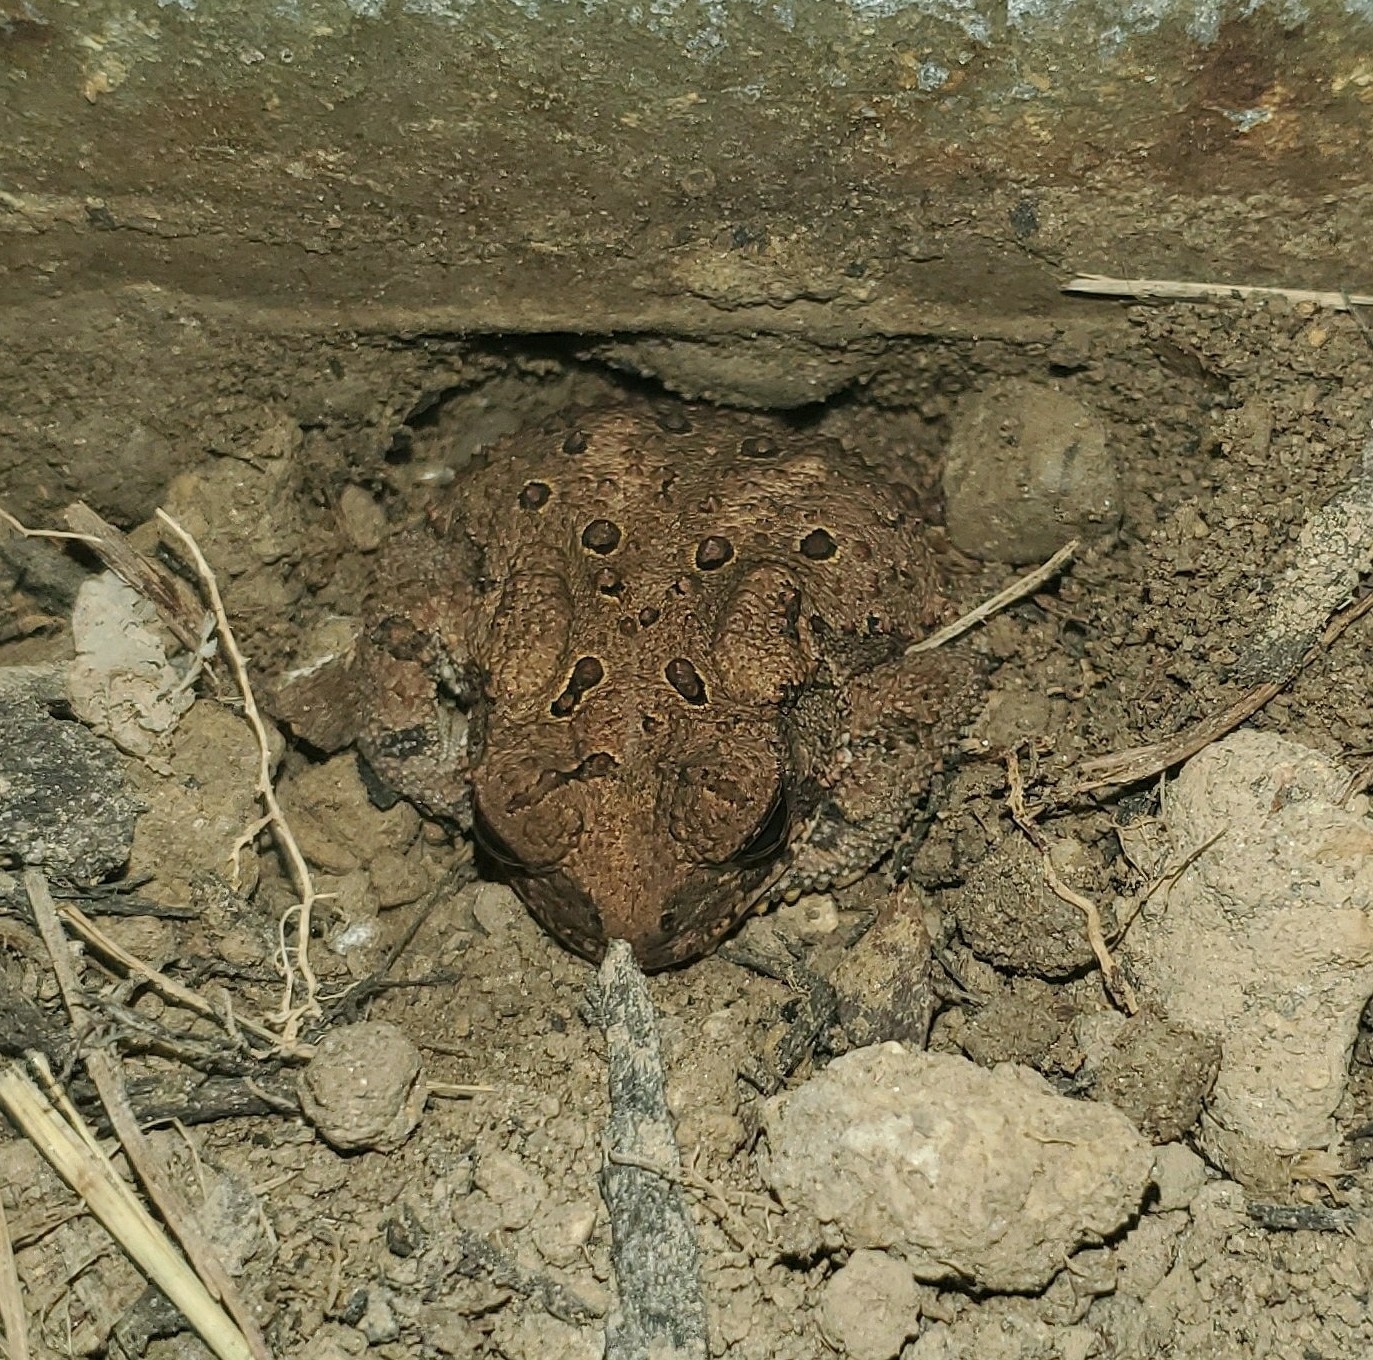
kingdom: Animalia
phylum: Chordata
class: Amphibia
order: Anura
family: Bufonidae
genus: Anaxyrus
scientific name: Anaxyrus americanus
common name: American toad
